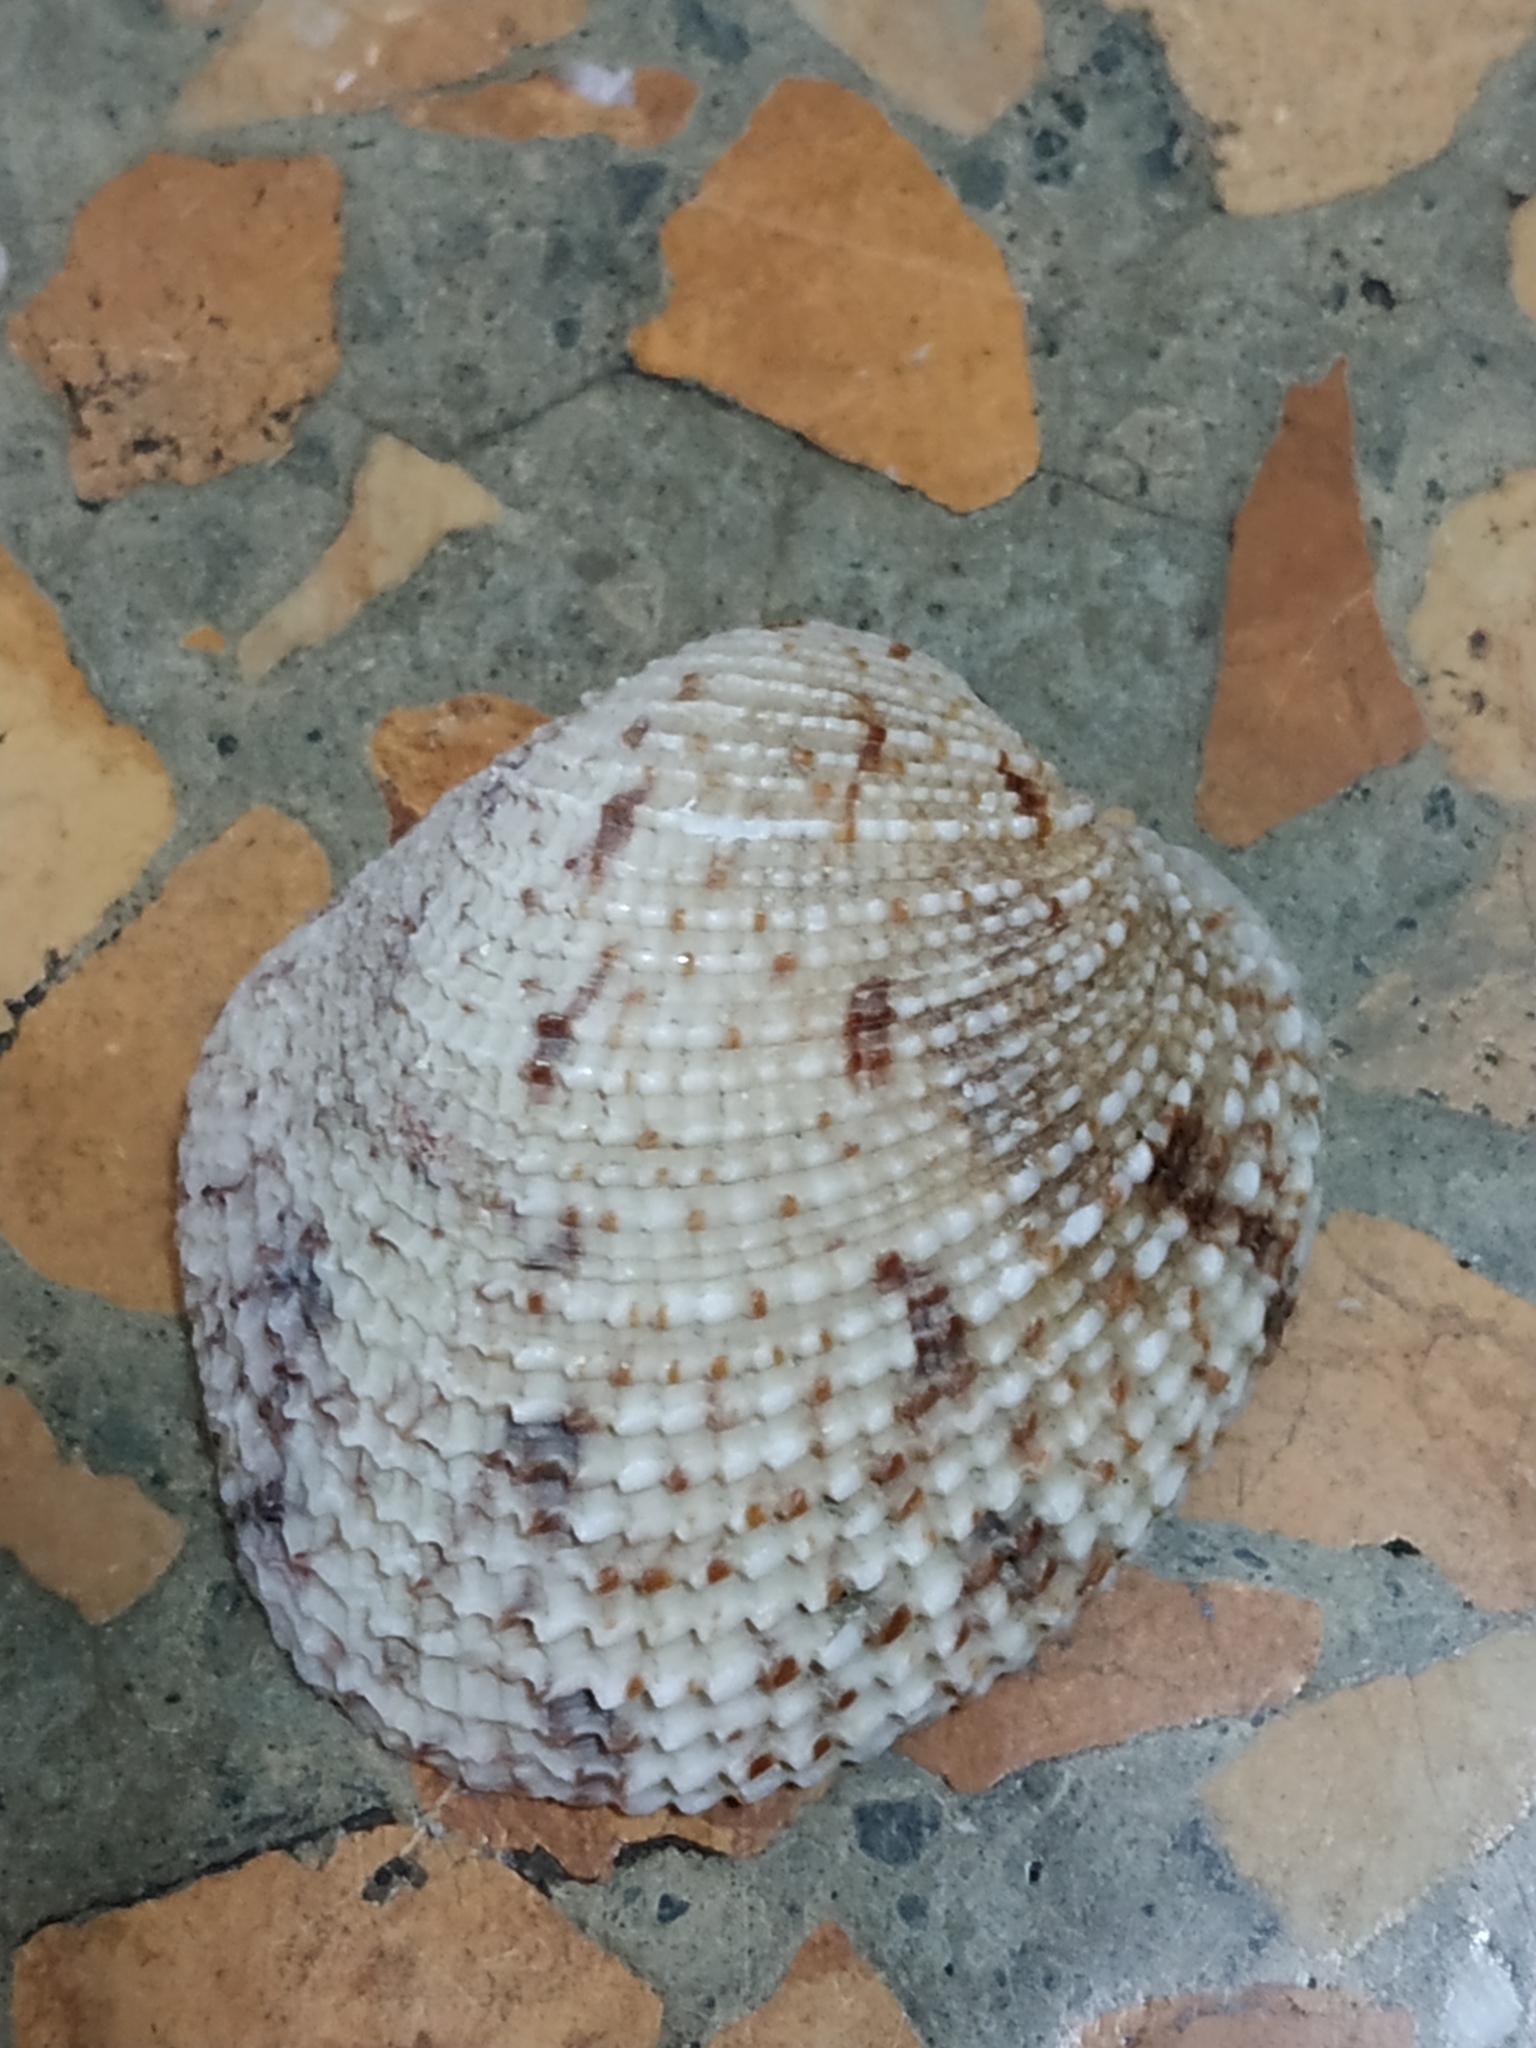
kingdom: Animalia
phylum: Mollusca
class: Bivalvia
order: Venerida
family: Veneridae
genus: Periglypta
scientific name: Periglypta reticulata
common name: Reticulated venus
